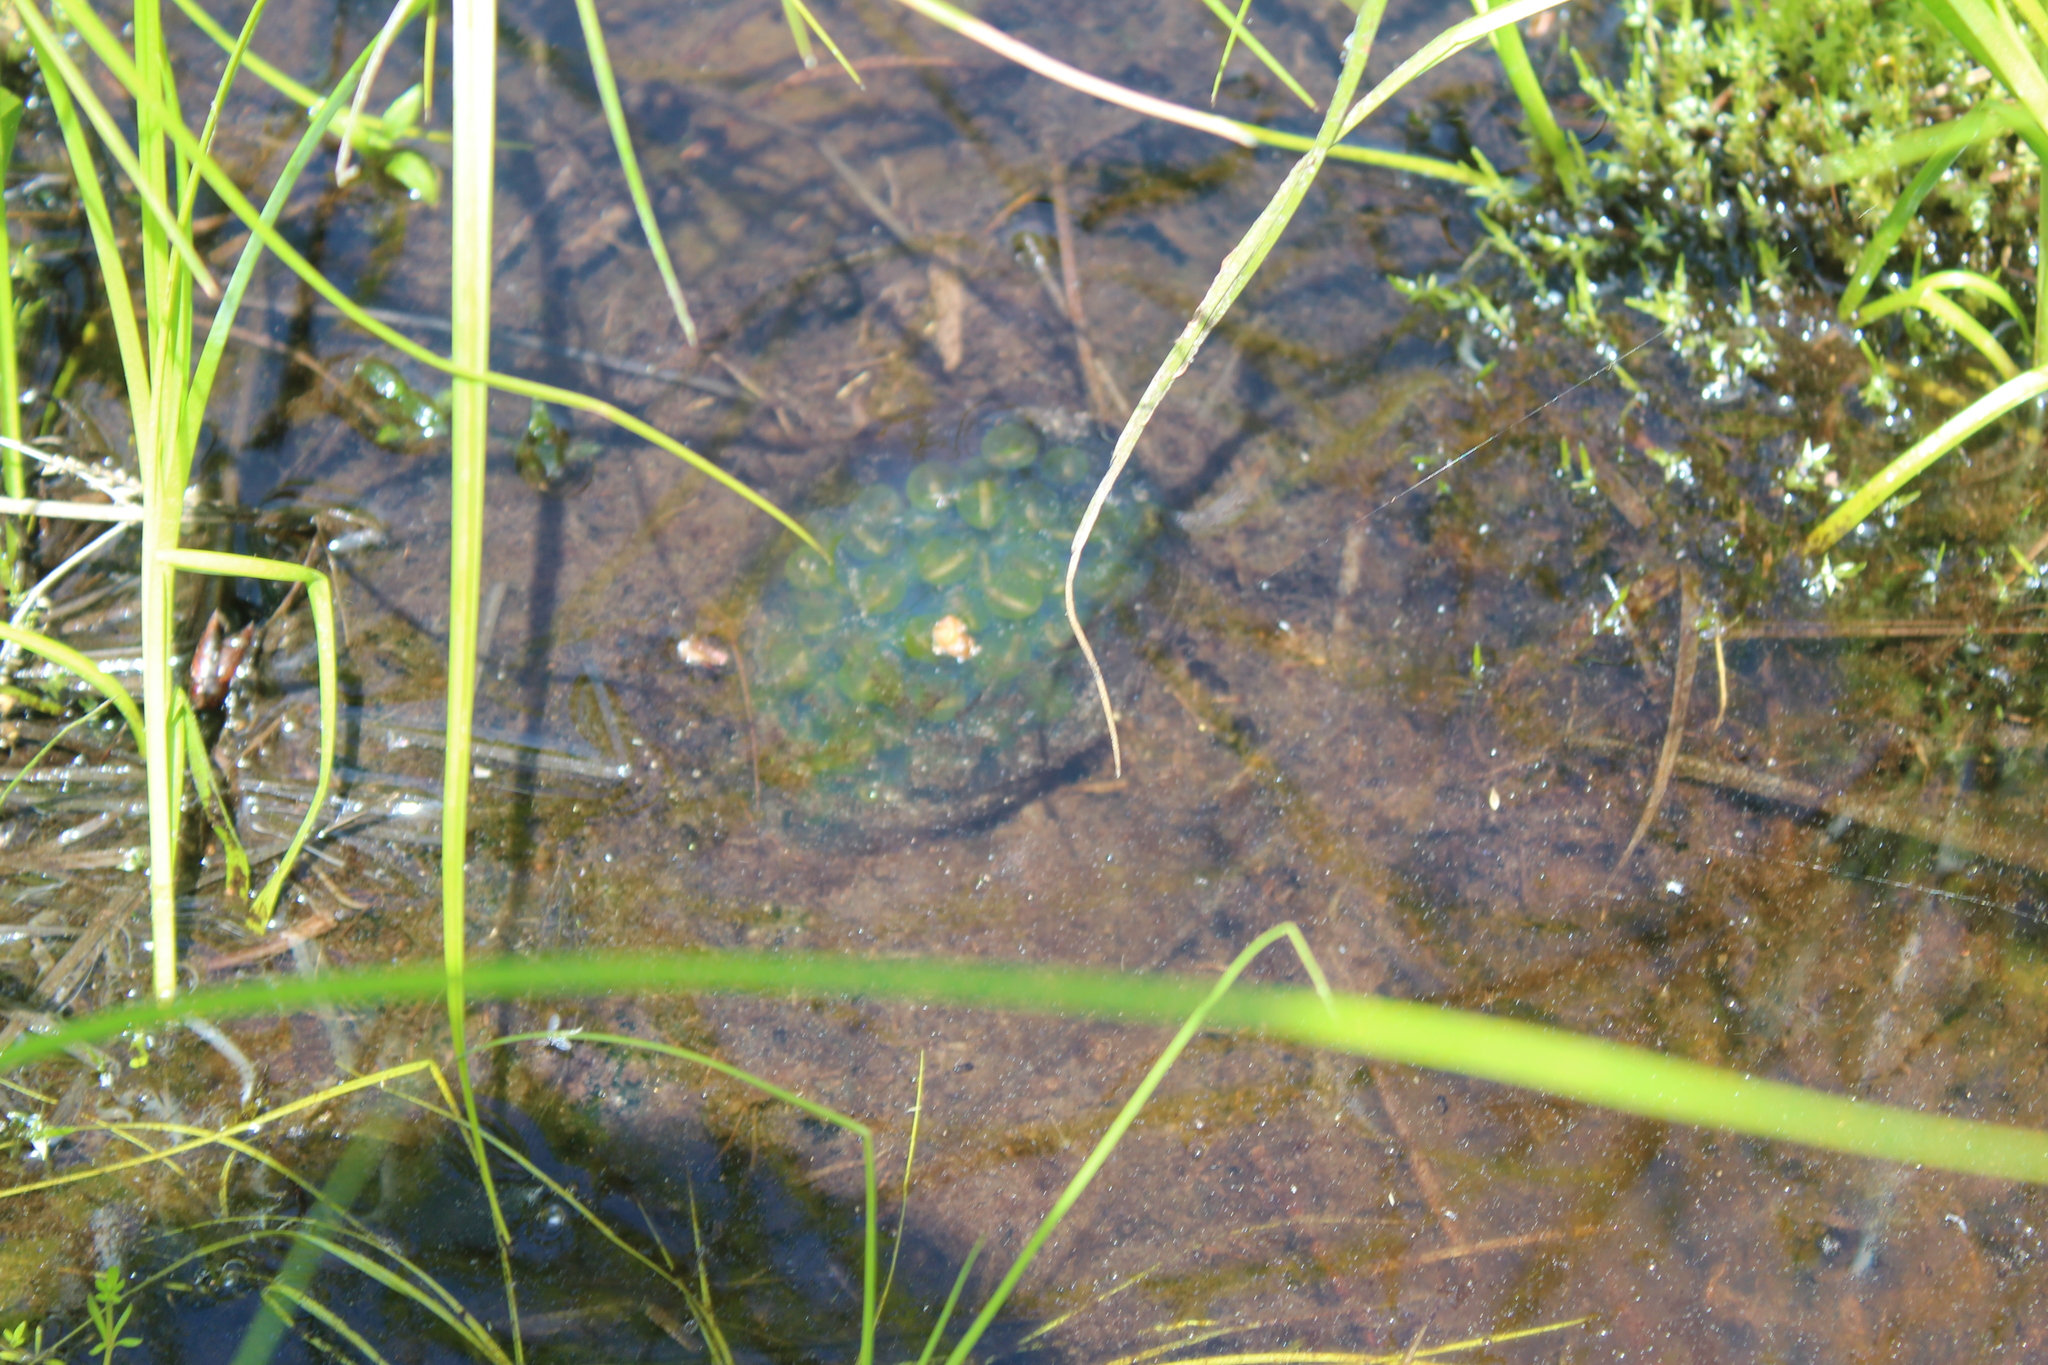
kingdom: Animalia
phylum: Chordata
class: Amphibia
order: Caudata
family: Ambystomatidae
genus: Ambystoma
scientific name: Ambystoma maculatum
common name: Spotted salamander
